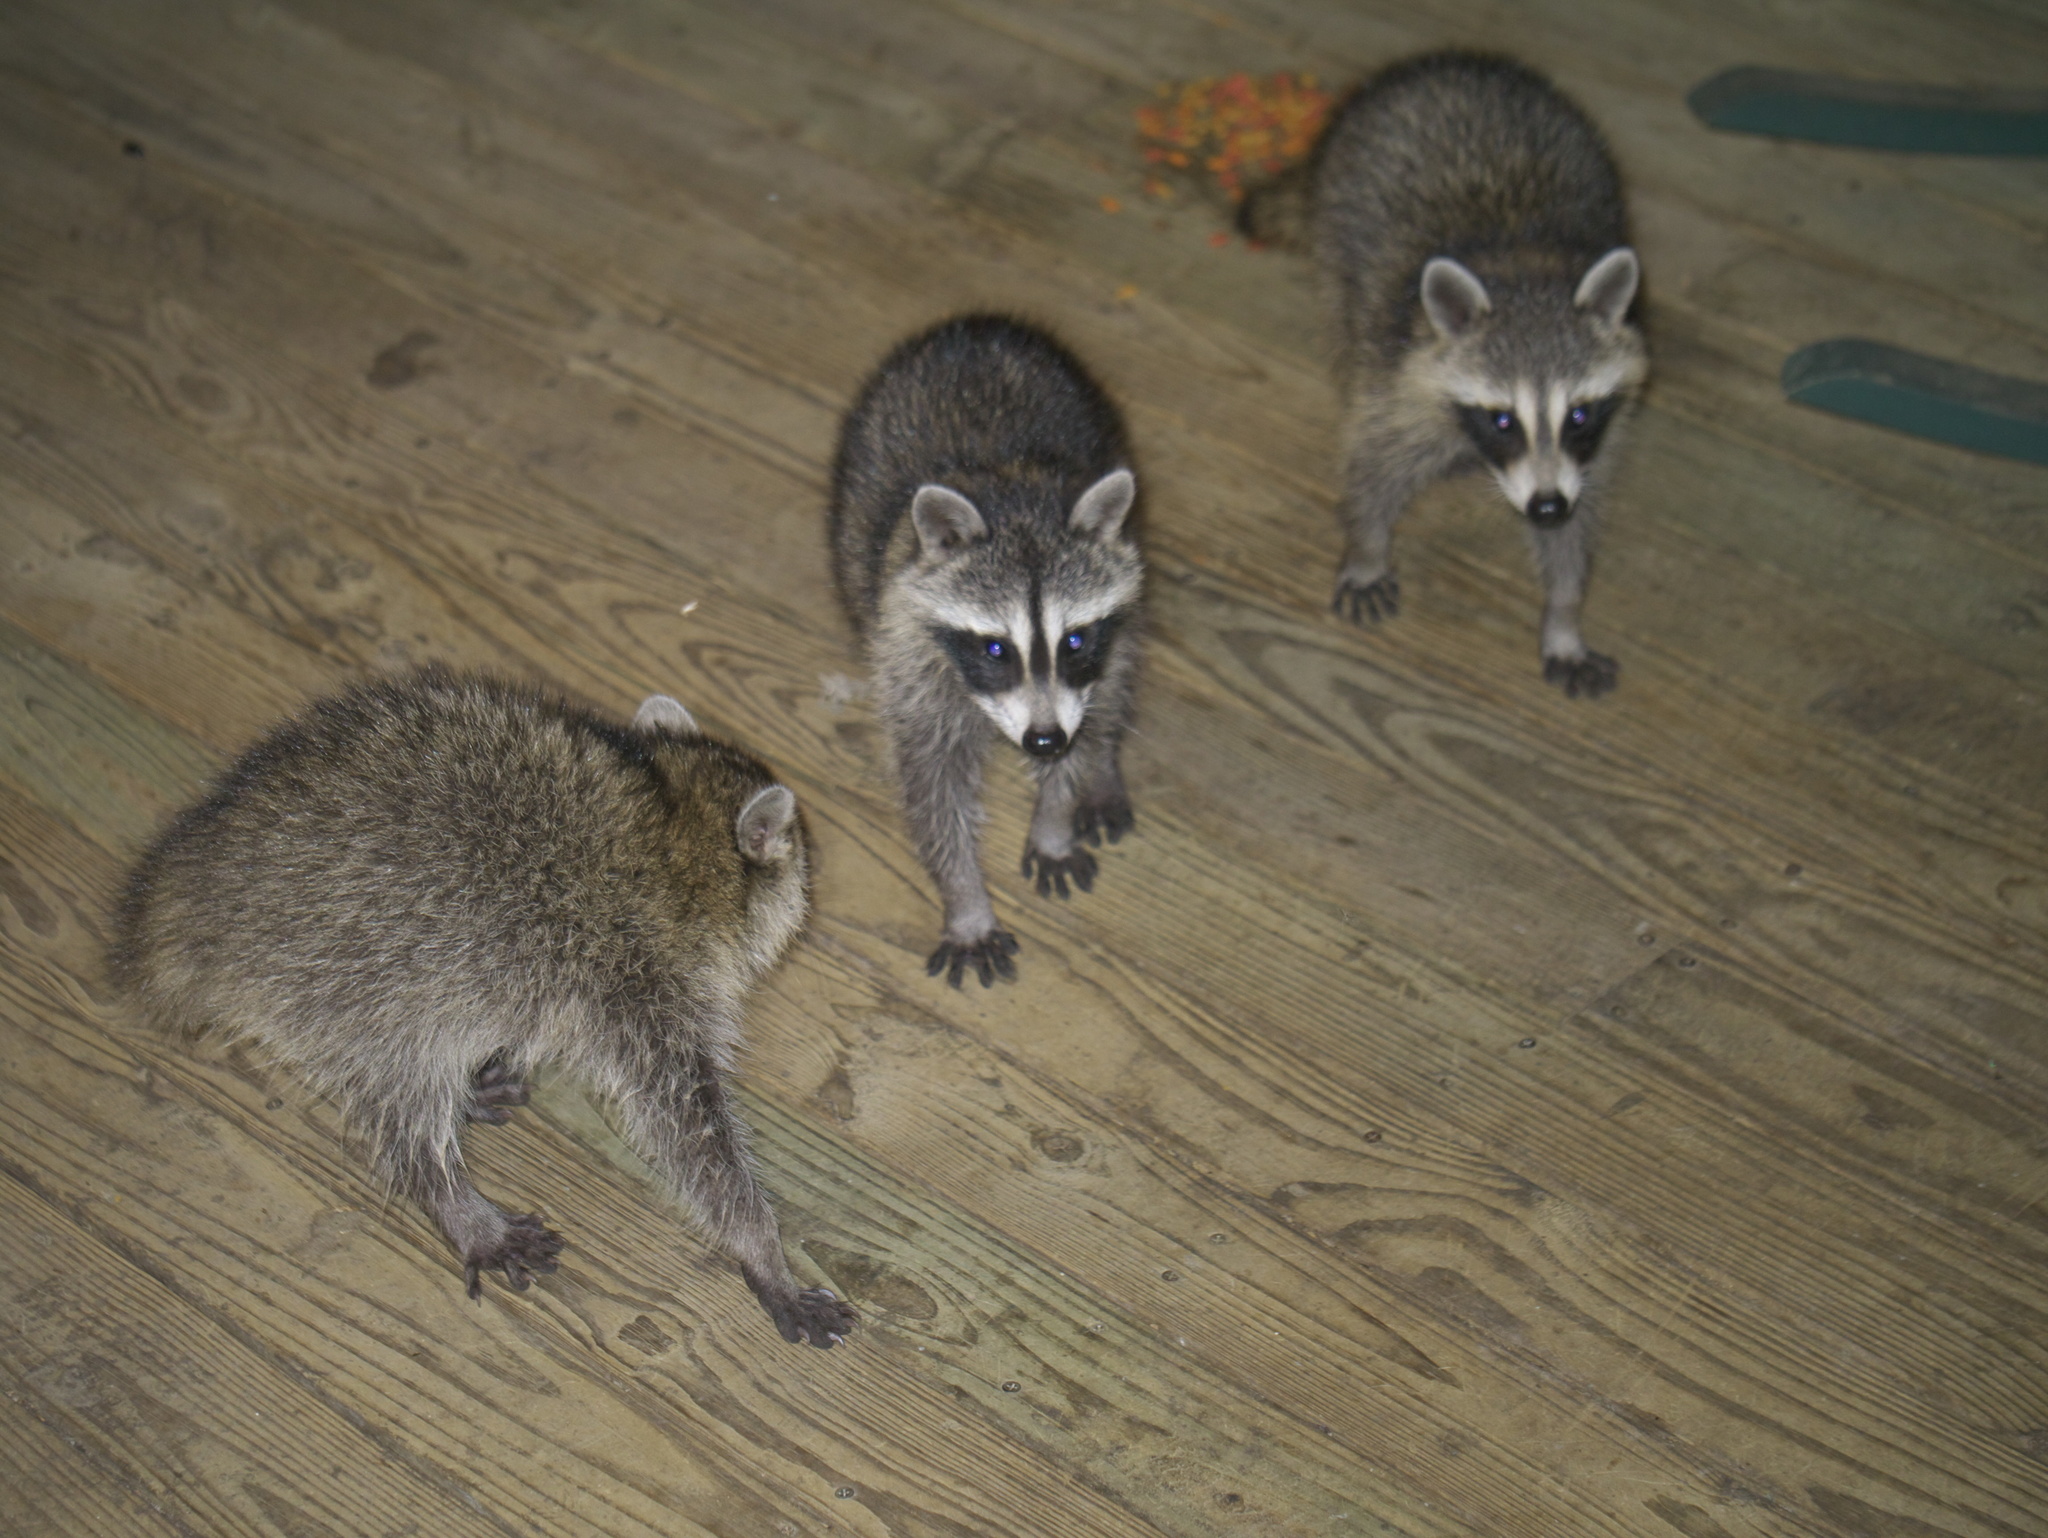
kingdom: Animalia
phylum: Chordata
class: Mammalia
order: Carnivora
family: Procyonidae
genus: Procyon
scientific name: Procyon lotor
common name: Raccoon
